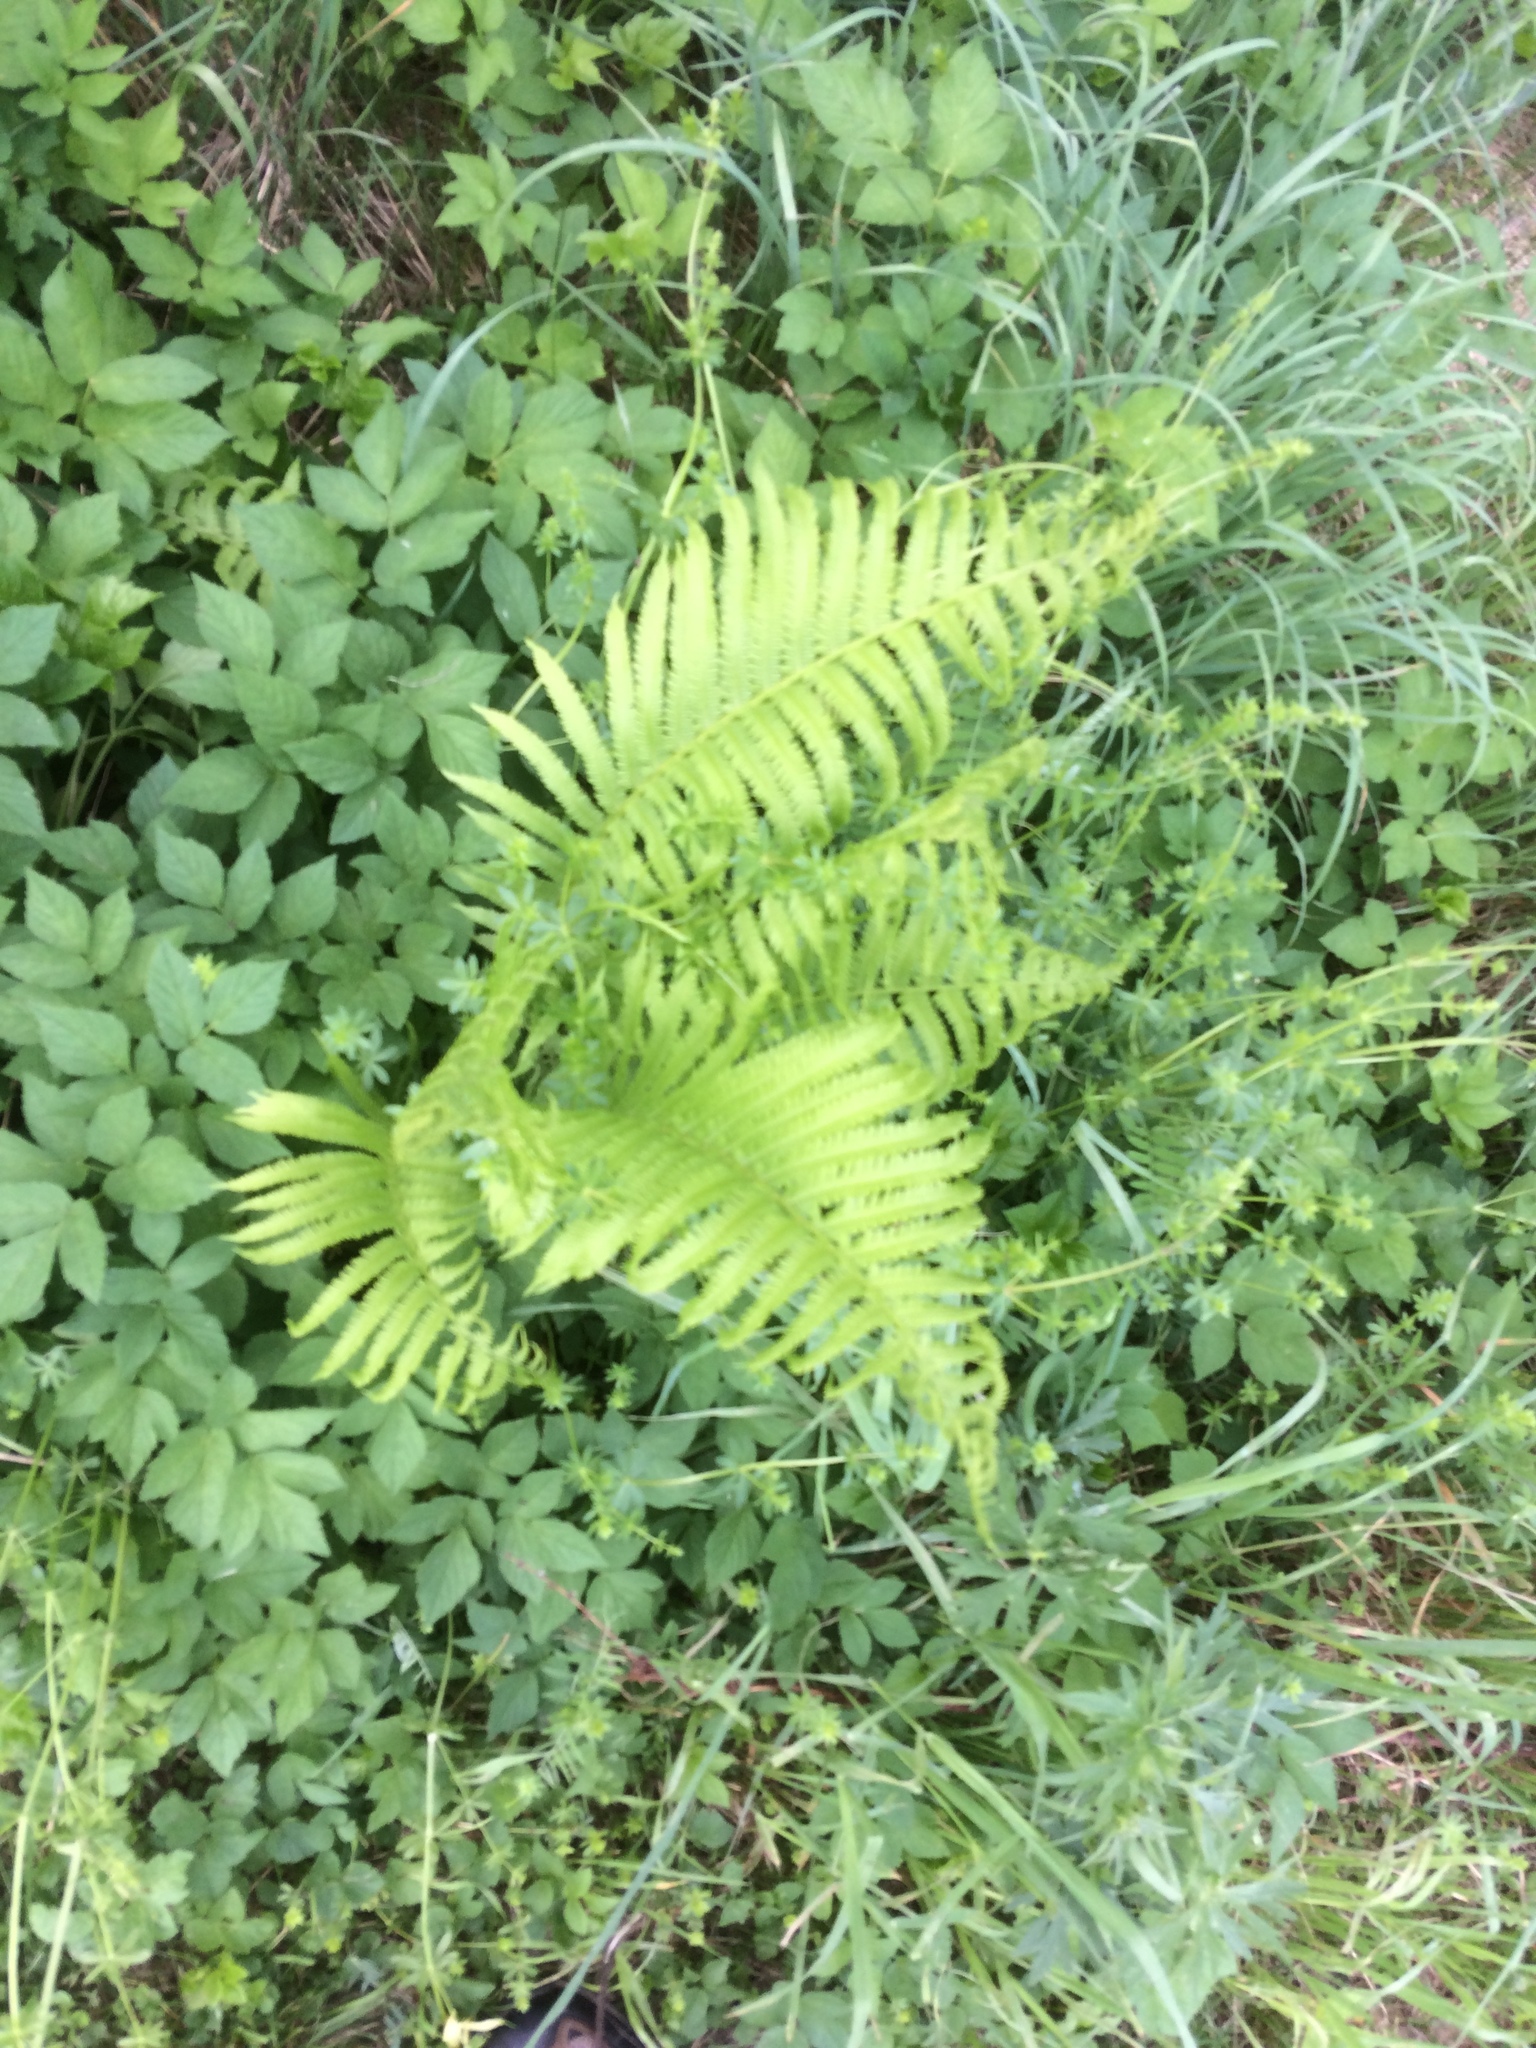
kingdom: Plantae
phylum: Tracheophyta
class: Polypodiopsida
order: Polypodiales
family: Onocleaceae
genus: Matteuccia
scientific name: Matteuccia struthiopteris
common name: Ostrich fern
